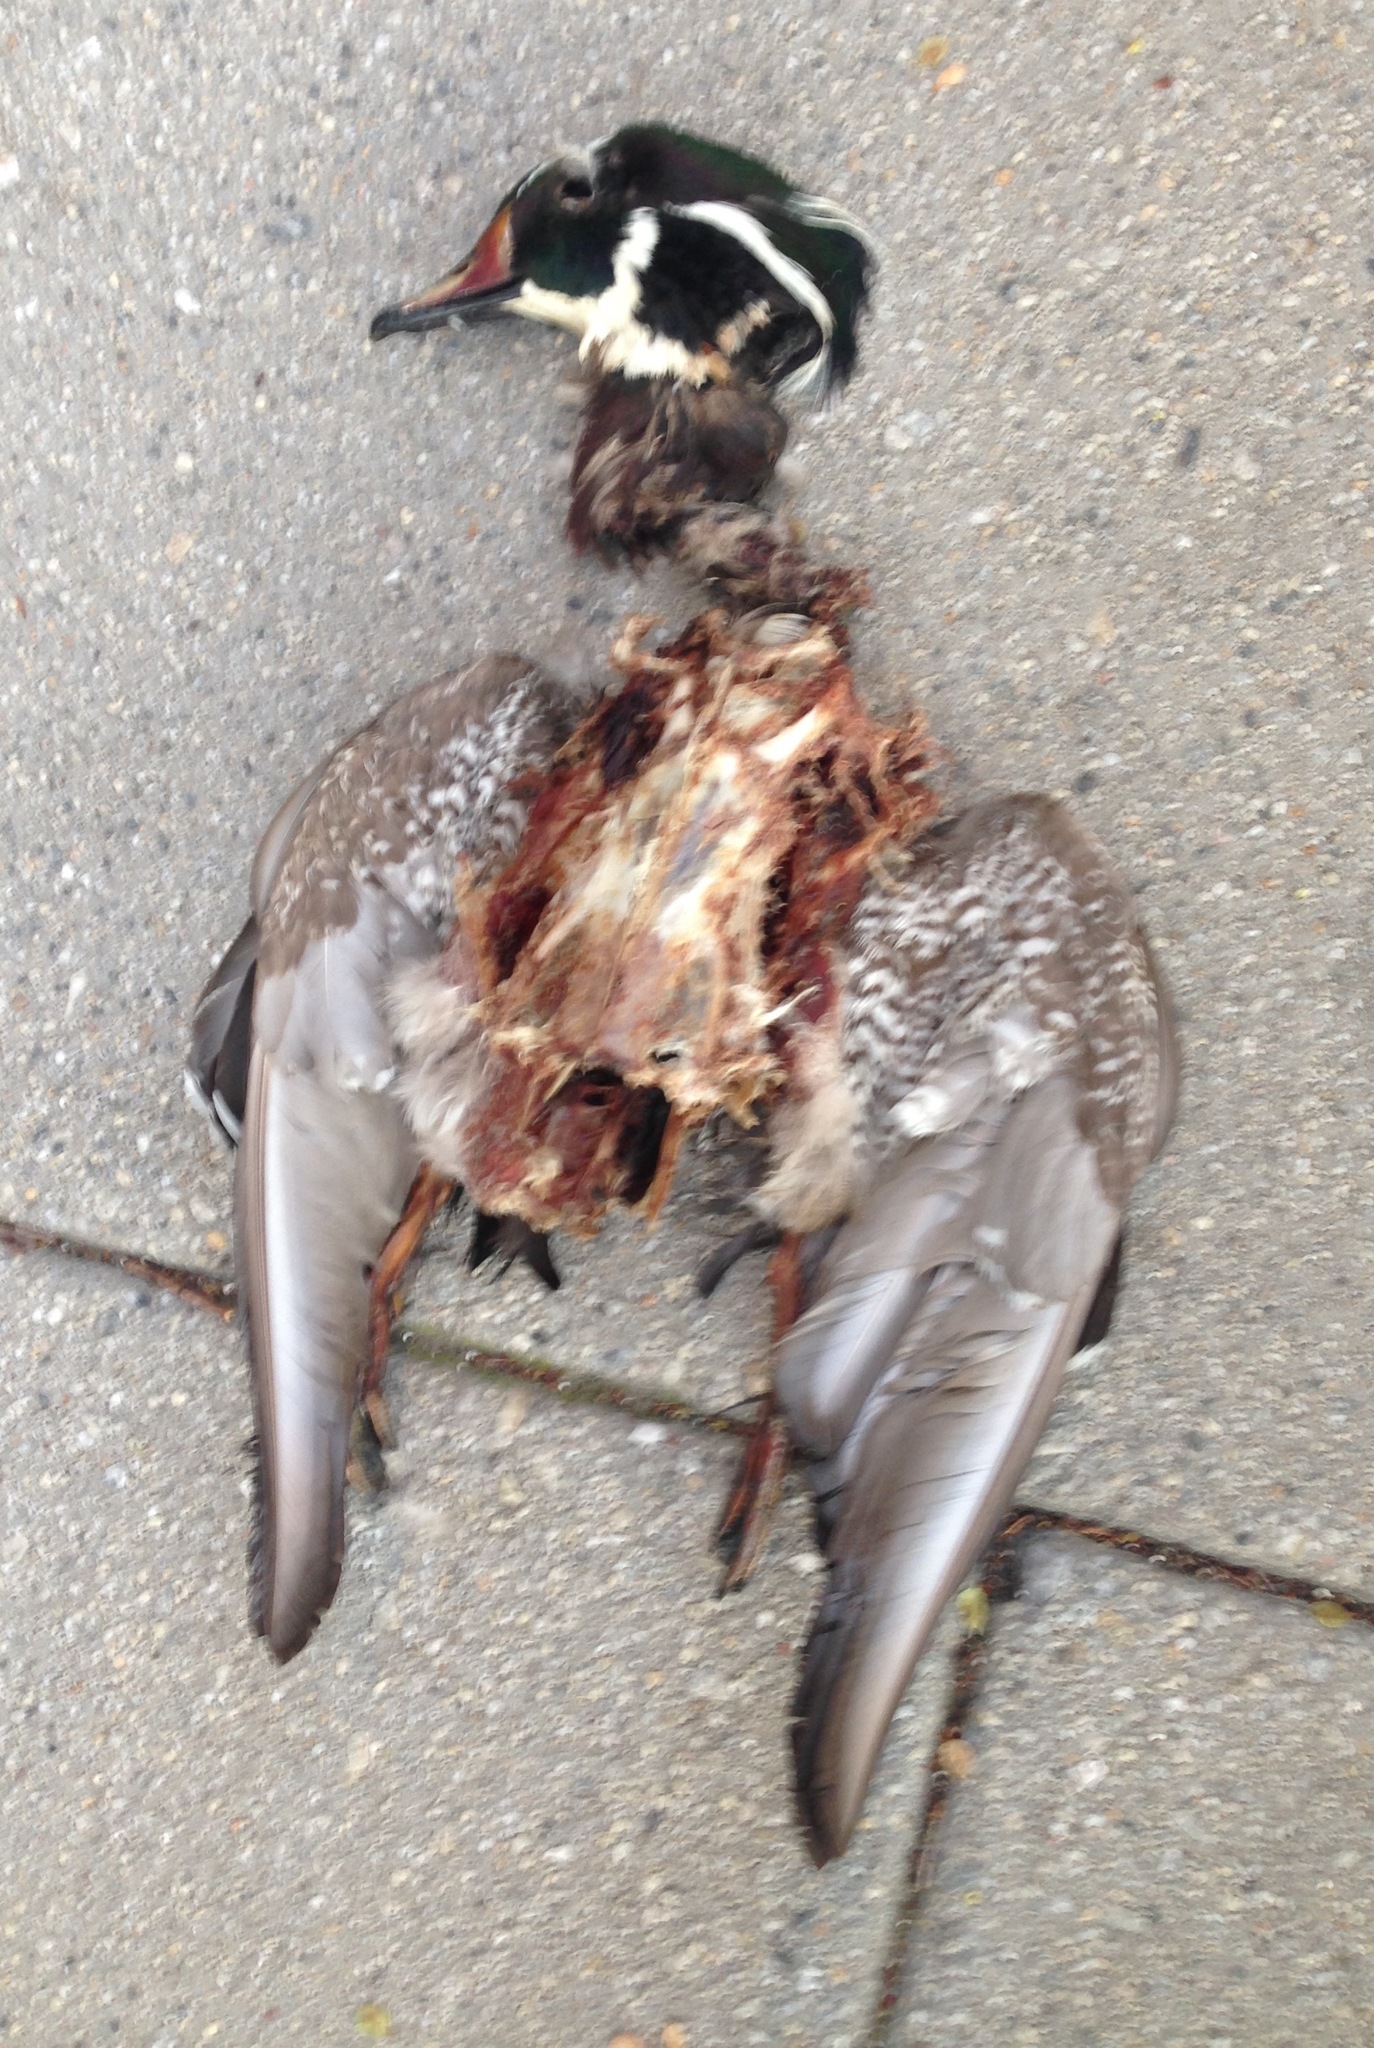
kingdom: Animalia
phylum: Chordata
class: Aves
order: Anseriformes
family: Anatidae
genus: Aix
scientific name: Aix sponsa
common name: Wood duck
